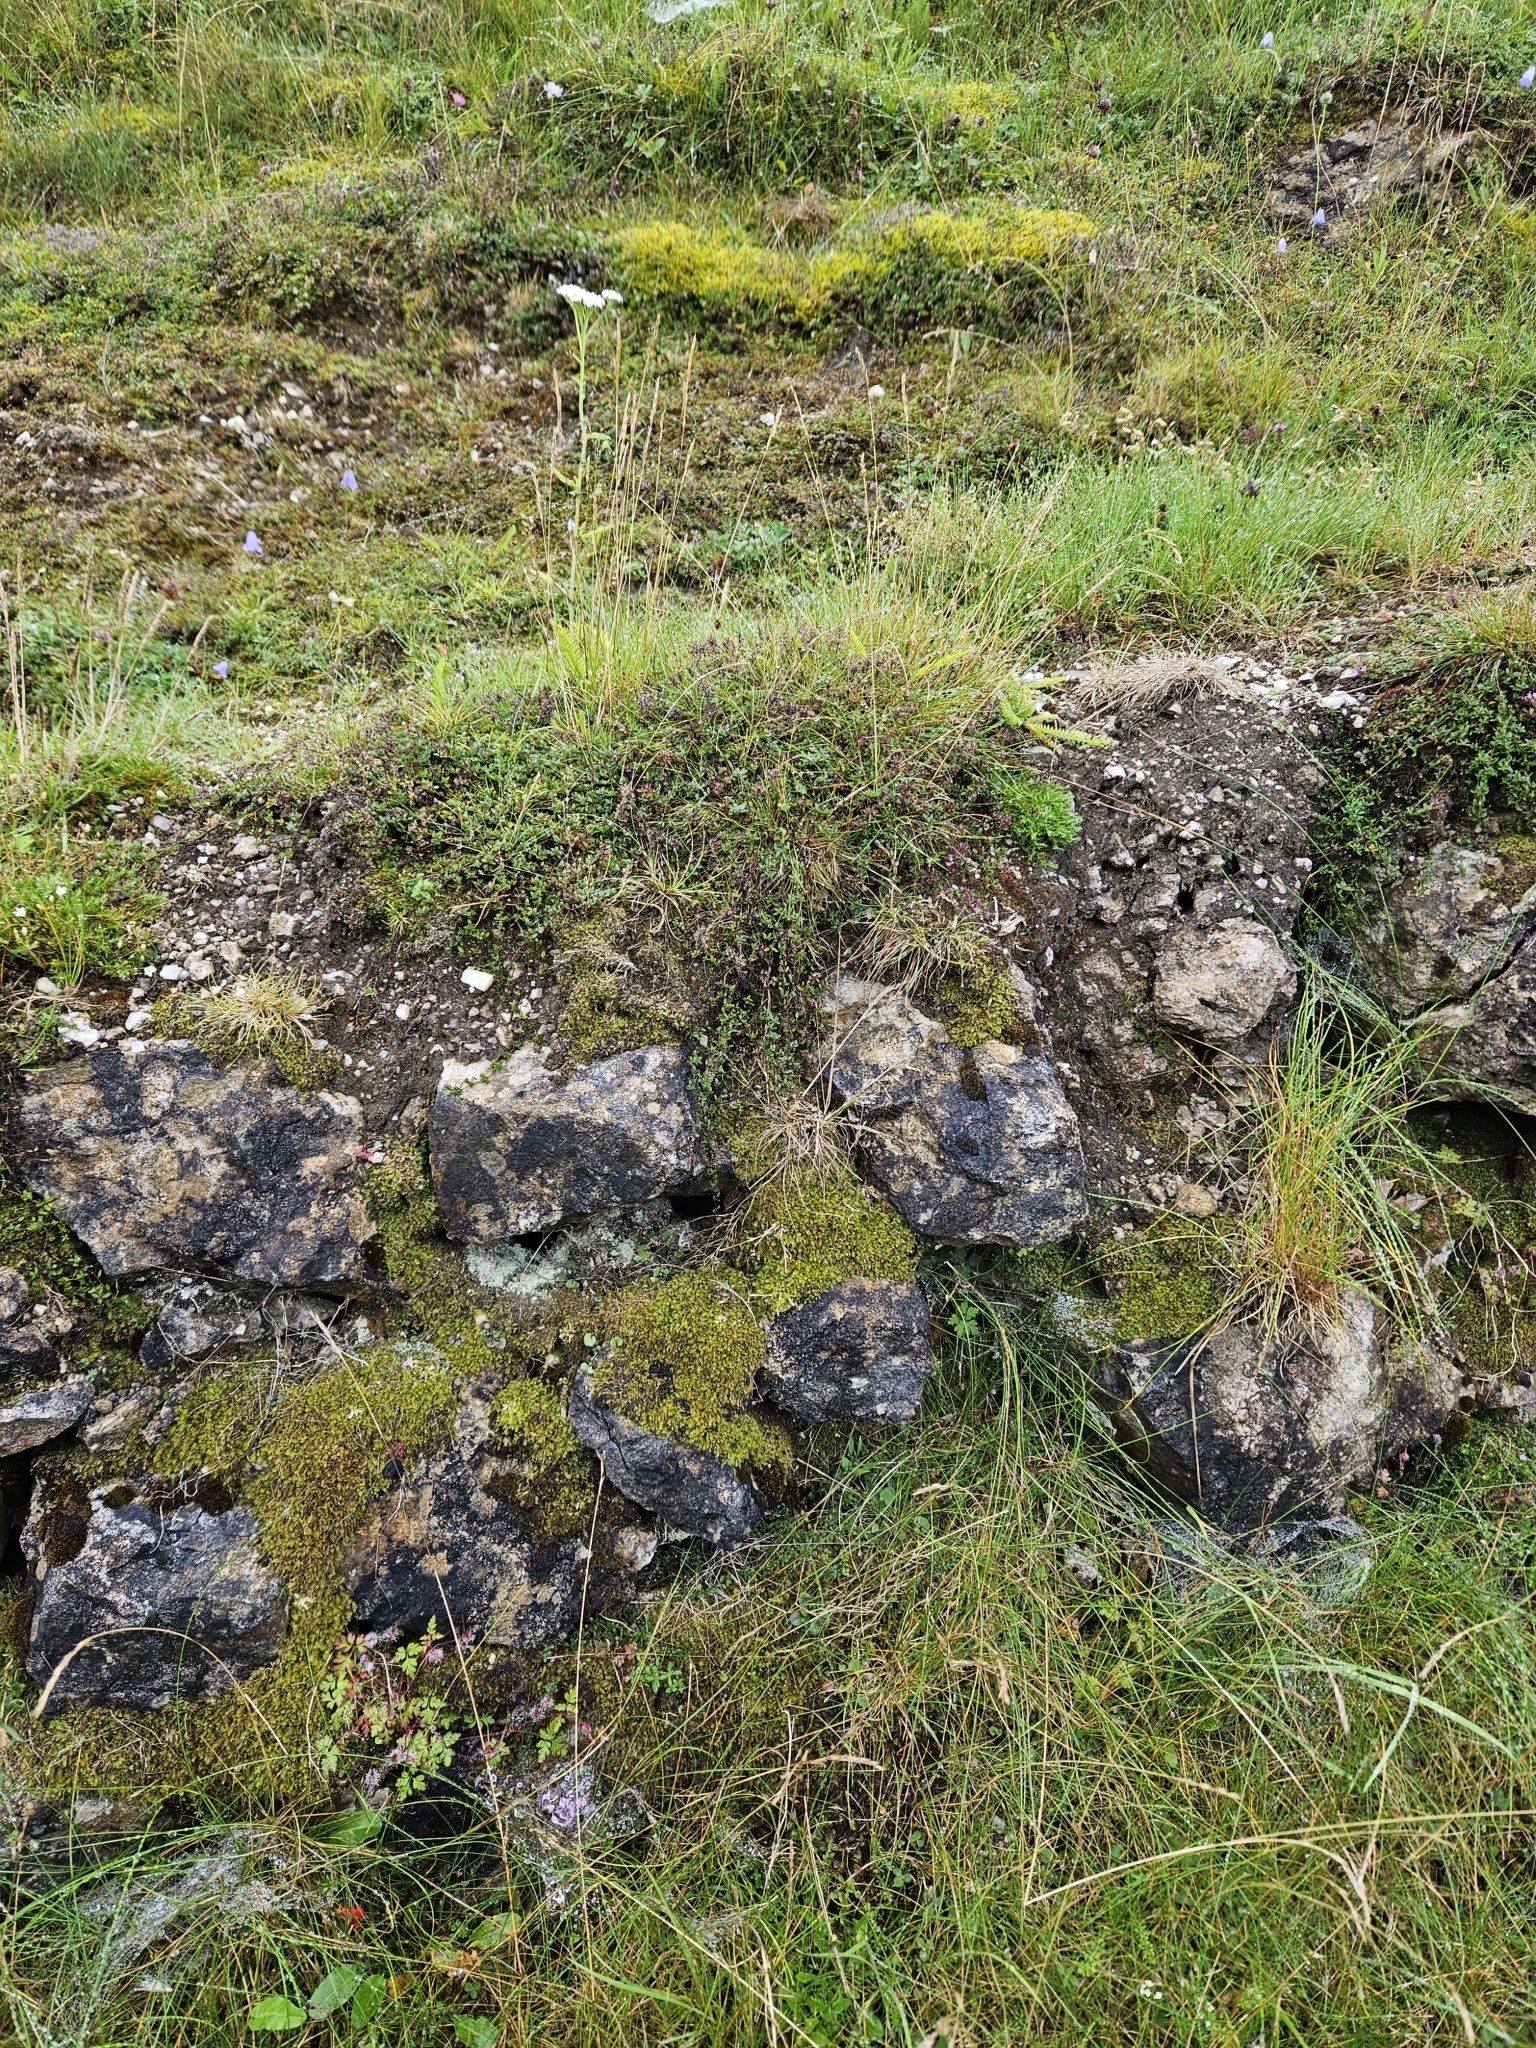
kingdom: Plantae
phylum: Marchantiophyta
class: Jungermanniopsida
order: Jungermanniales
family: Plagiochilaceae
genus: Plagiochila
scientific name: Plagiochila porelloides
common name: Lesser featherwort
